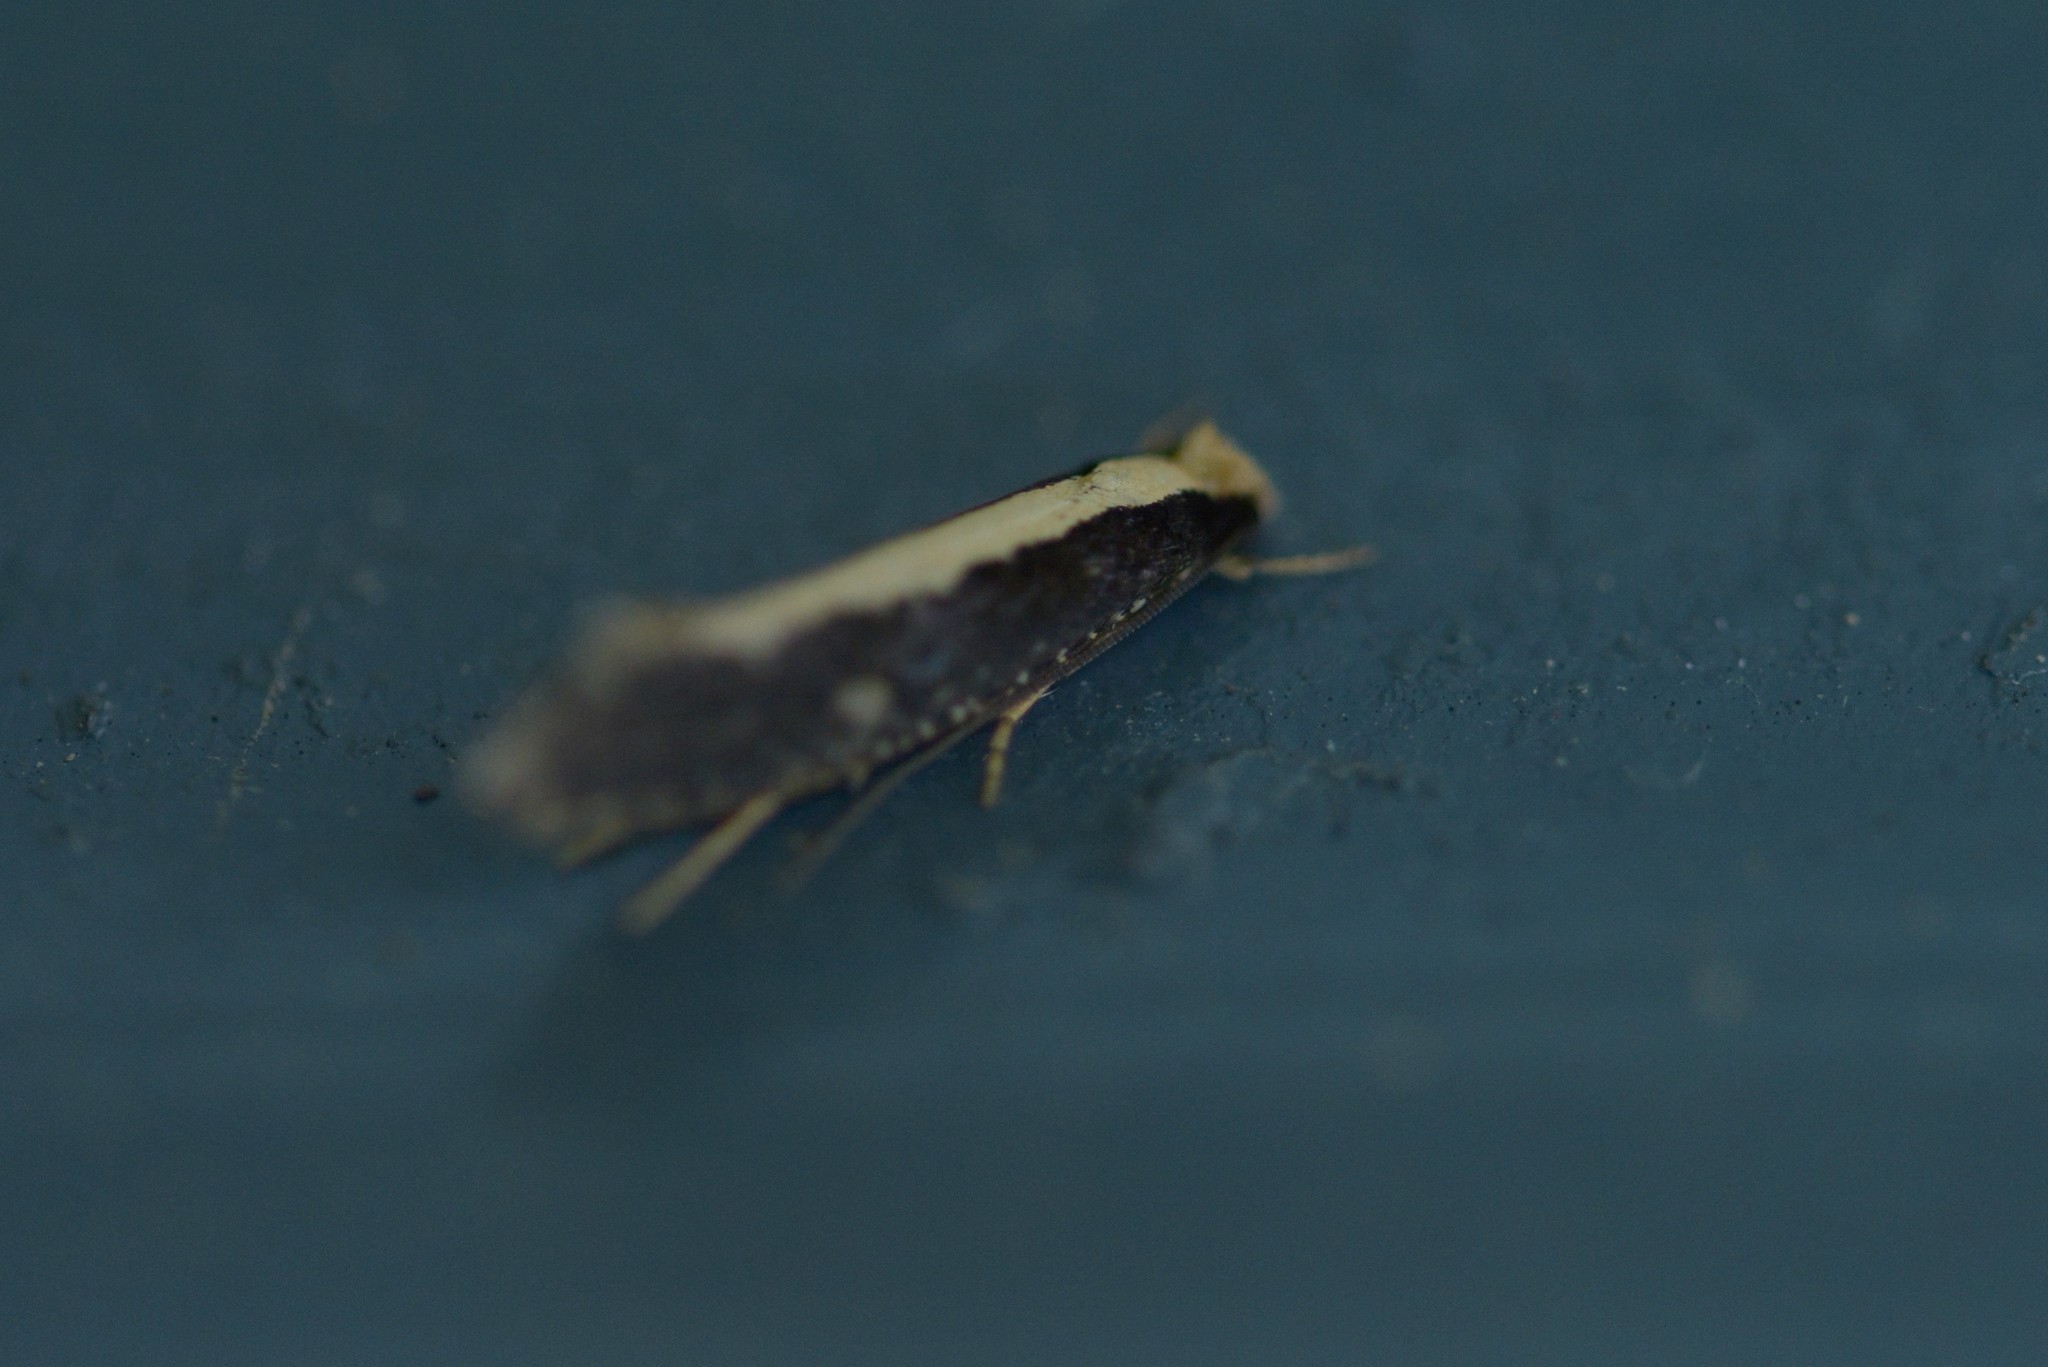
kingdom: Animalia
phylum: Arthropoda
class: Insecta
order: Lepidoptera
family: Tineidae
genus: Monopis
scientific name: Monopis ethelella
